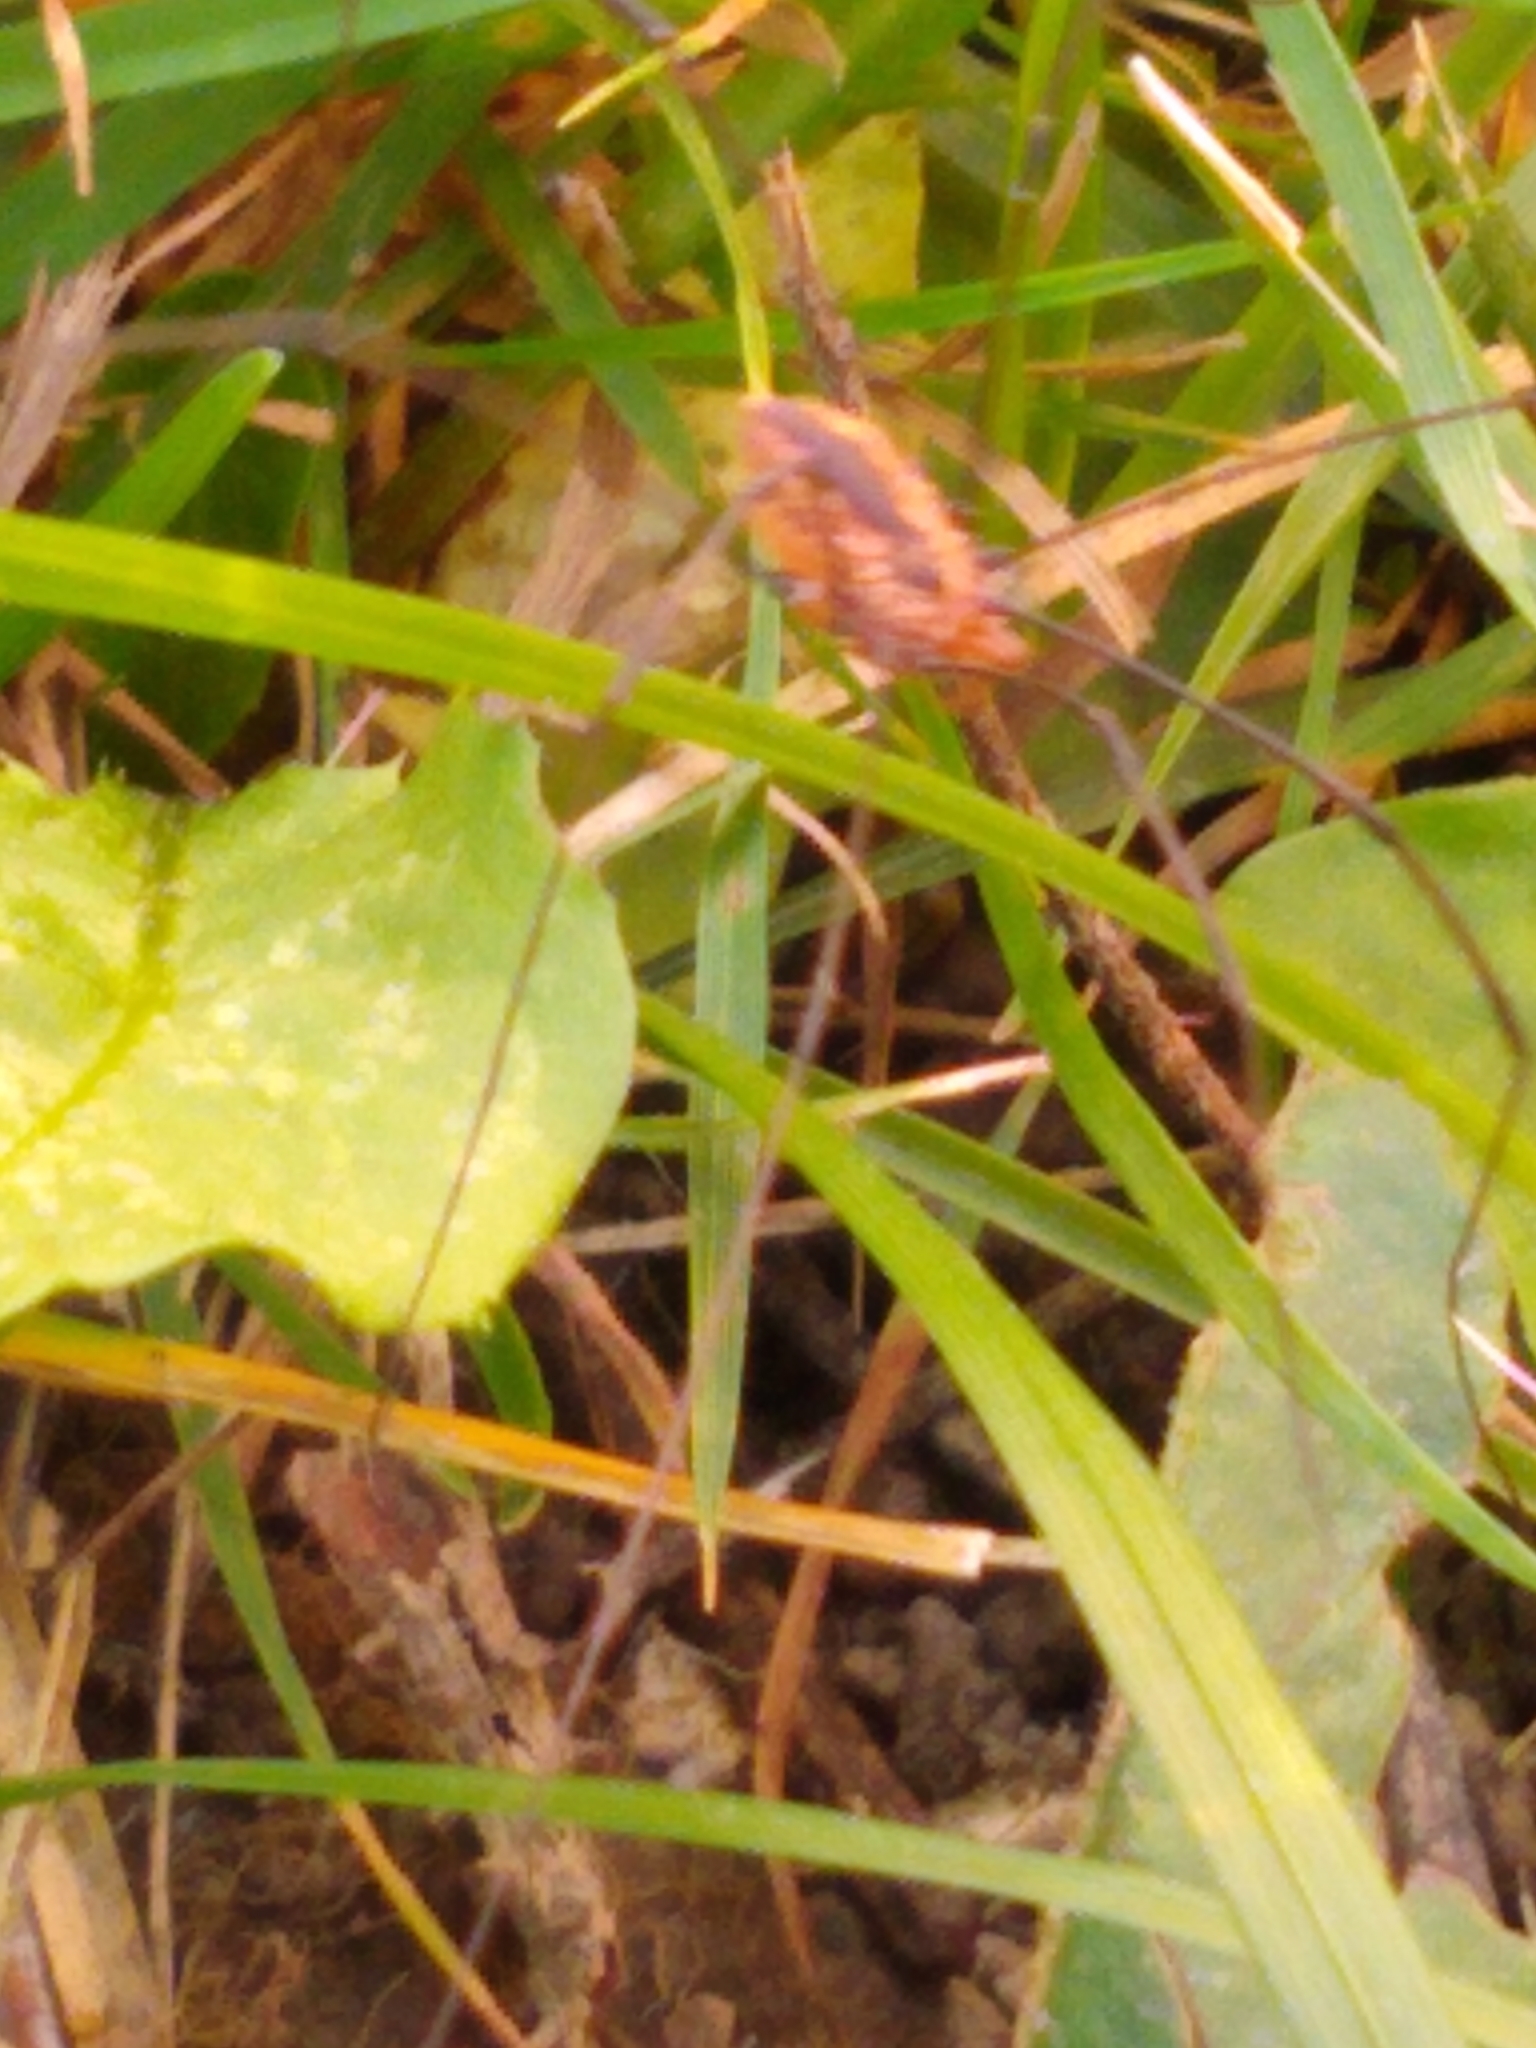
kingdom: Animalia
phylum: Arthropoda
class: Arachnida
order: Opiliones
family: Sclerosomatidae
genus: Leiobunum
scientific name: Leiobunum vittatum
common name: Eastern harvestman
